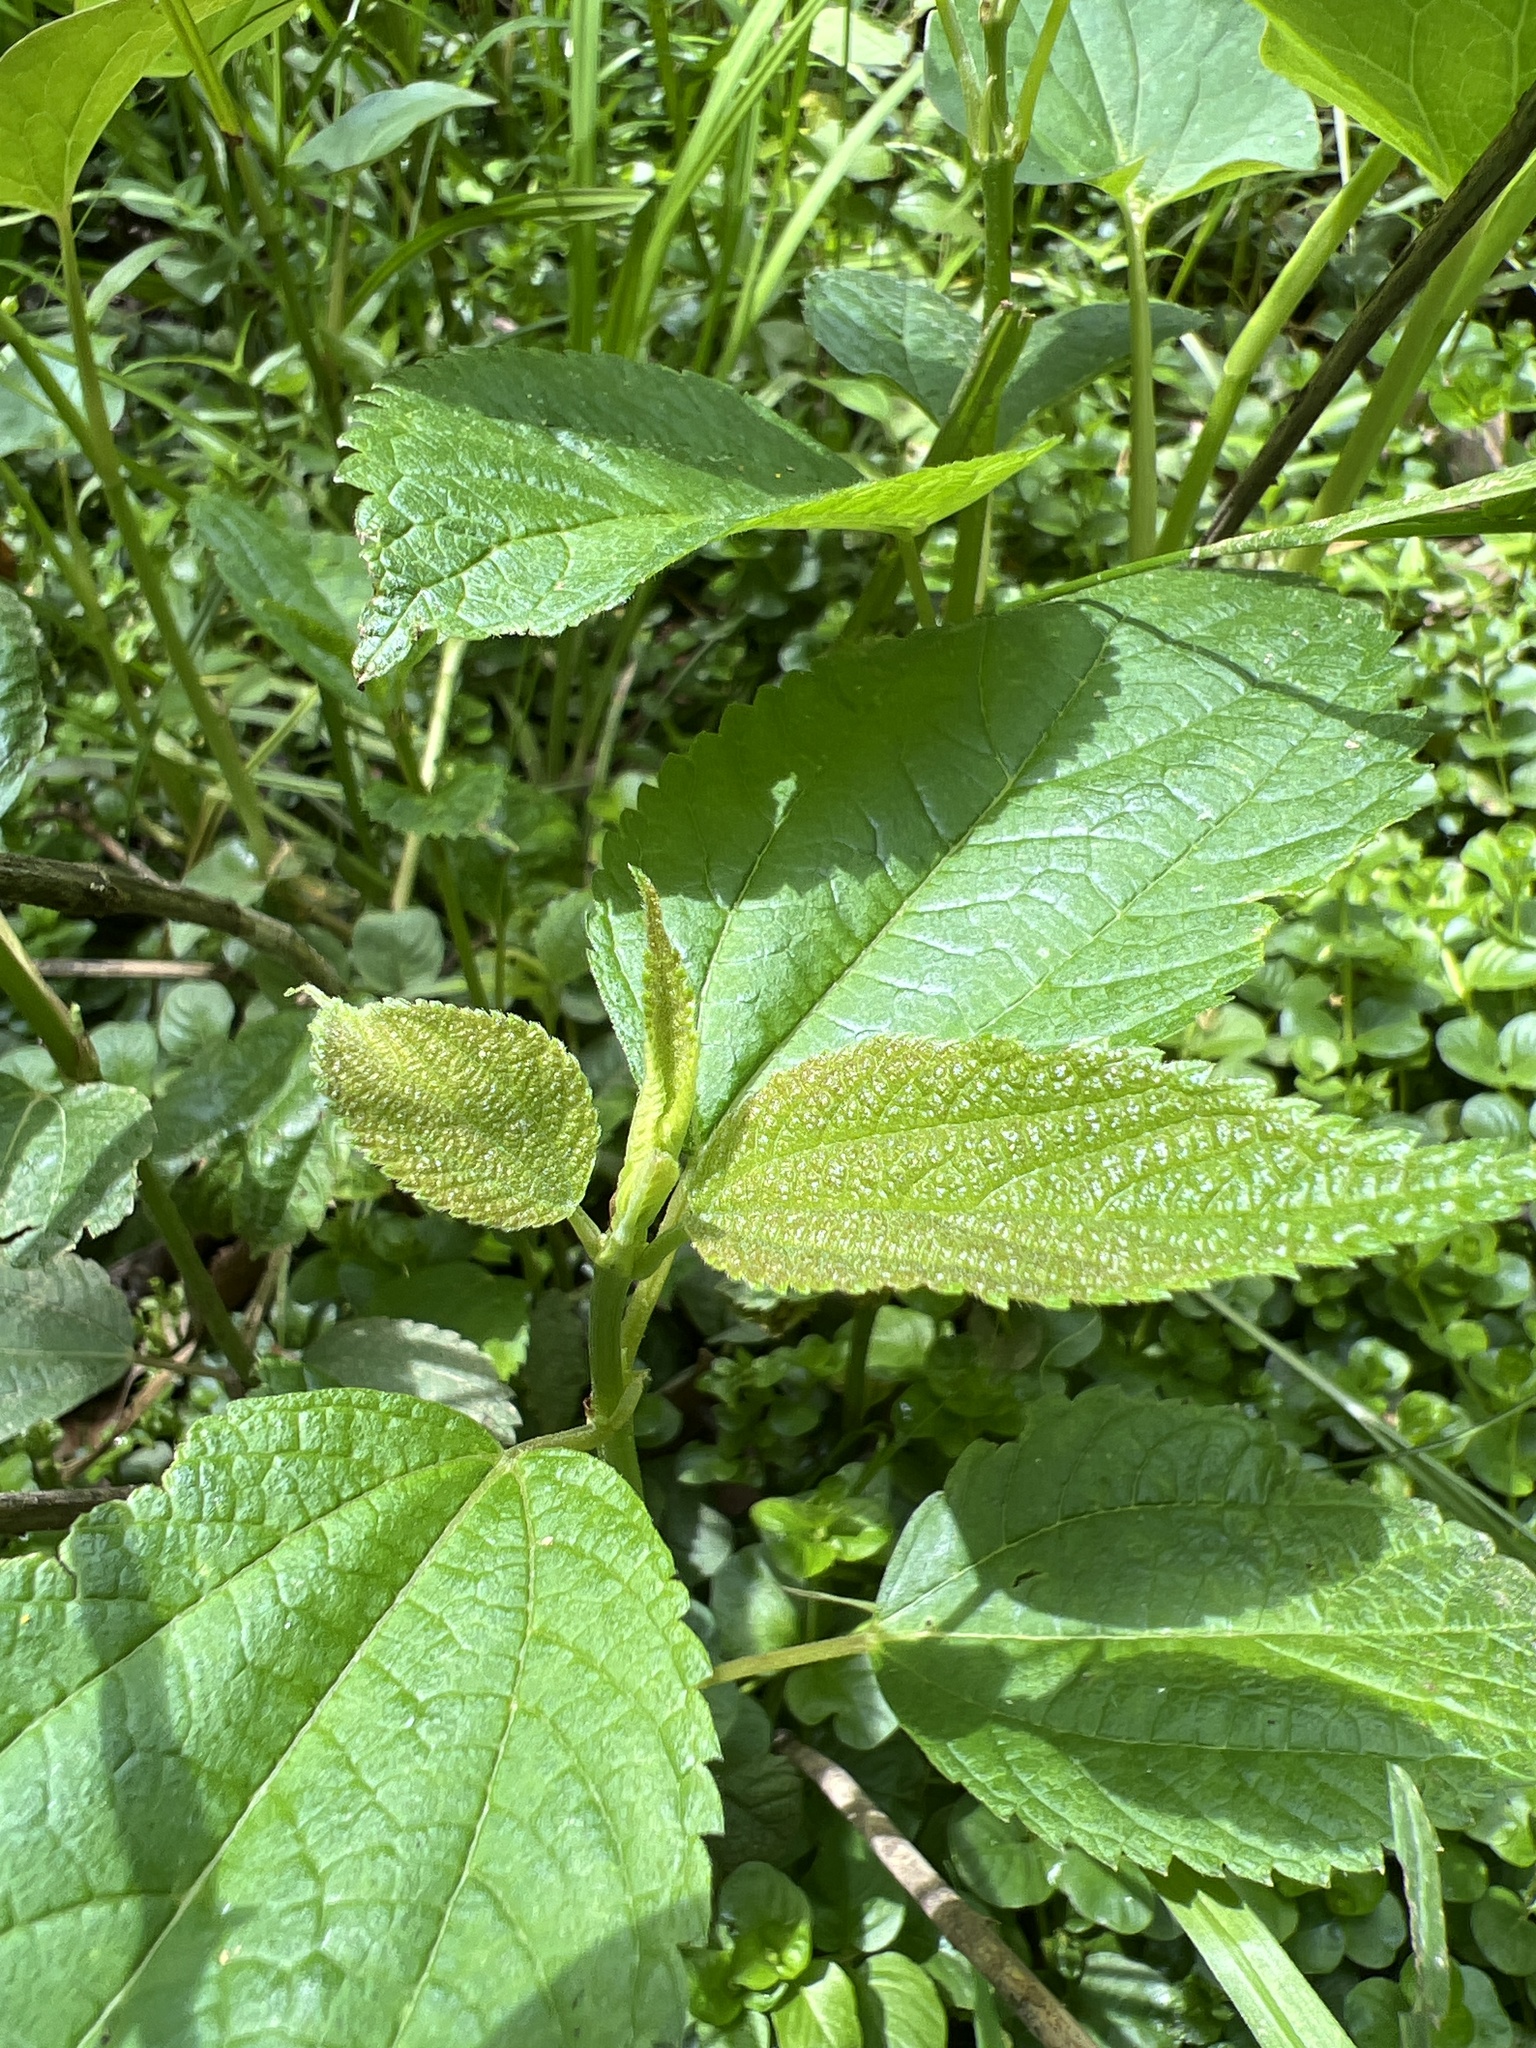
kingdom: Plantae
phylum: Tracheophyta
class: Magnoliopsida
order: Rosales
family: Urticaceae
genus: Boehmeria
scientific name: Boehmeria cylindrica
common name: Bog-hemp
